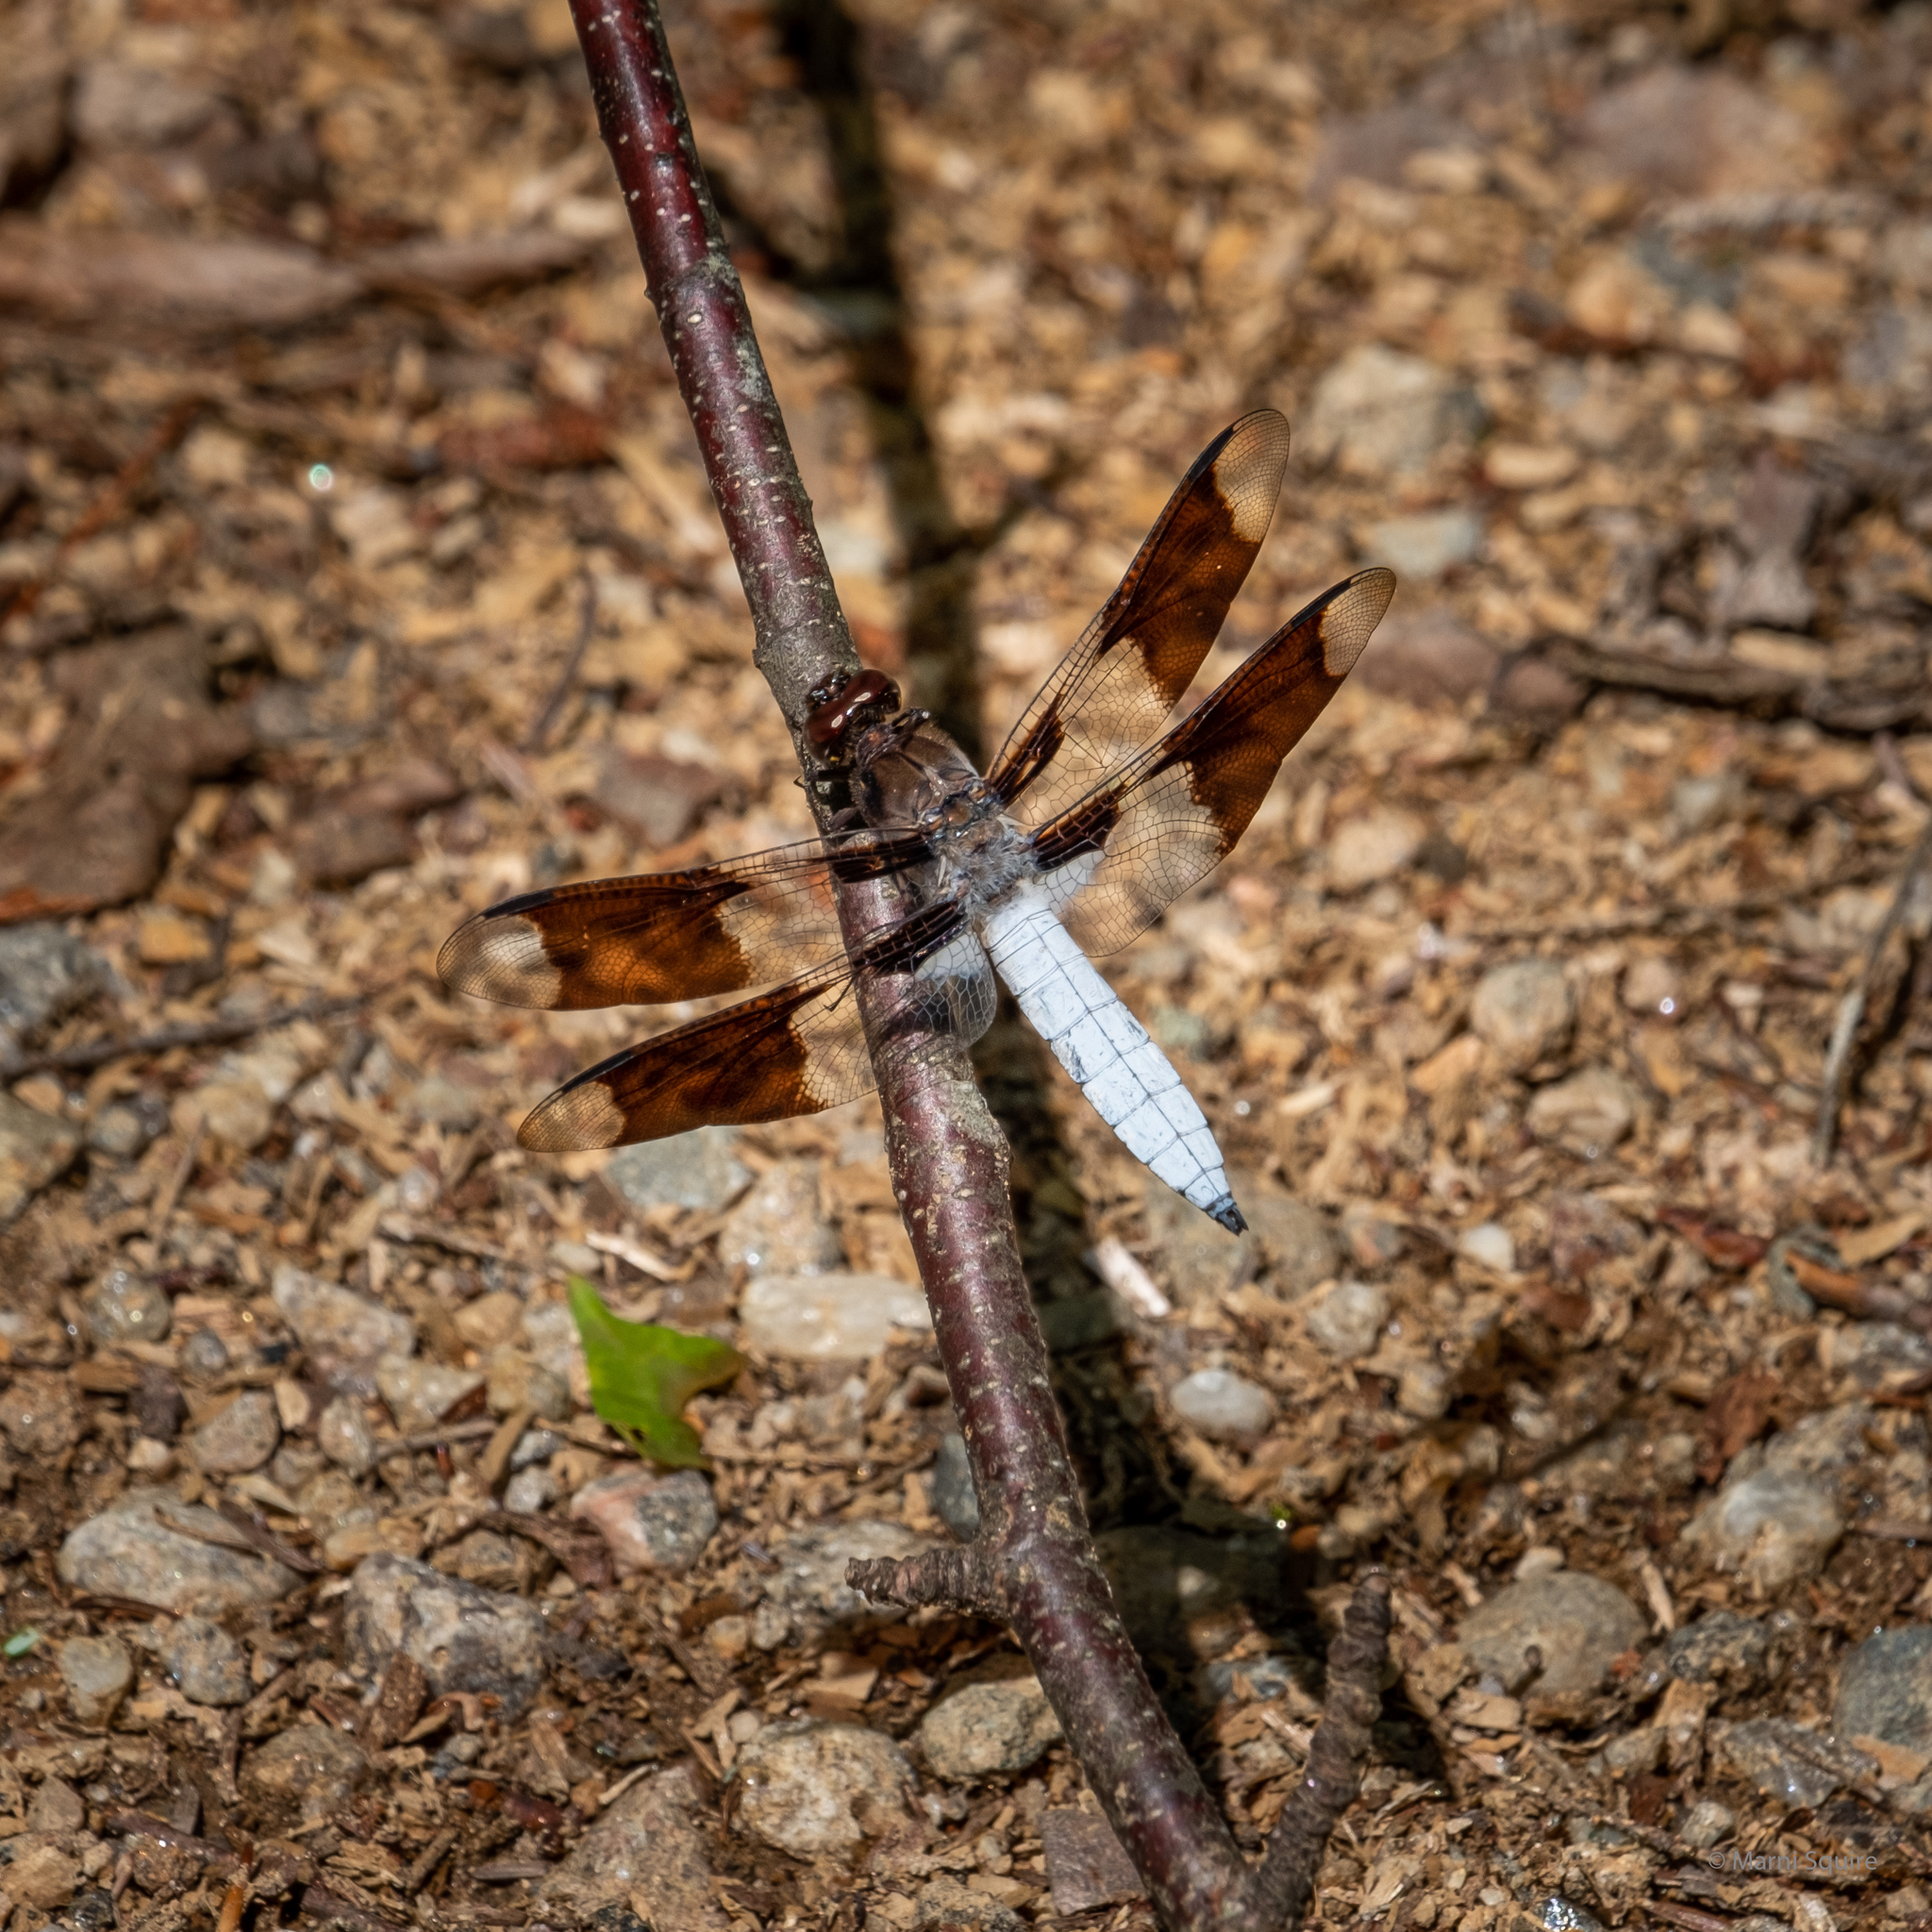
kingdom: Animalia
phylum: Arthropoda
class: Insecta
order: Odonata
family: Libellulidae
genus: Plathemis
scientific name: Plathemis lydia
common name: Common whitetail
